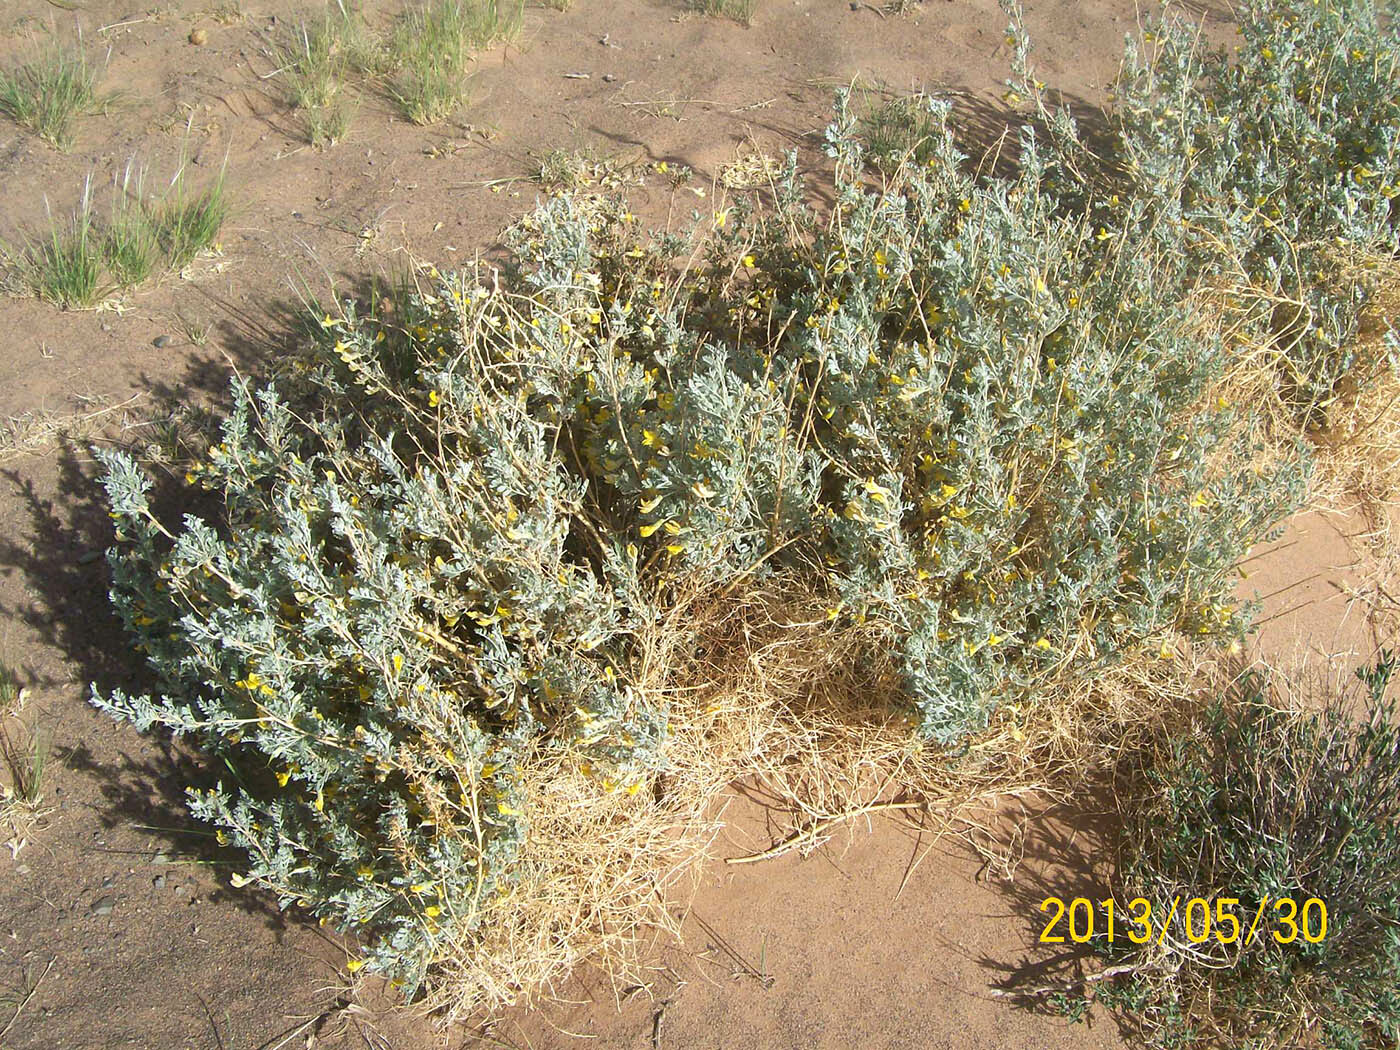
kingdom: Plantae
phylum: Tracheophyta
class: Magnoliopsida
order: Fabales
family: Fabaceae
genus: Caragana
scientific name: Caragana korshinskii
